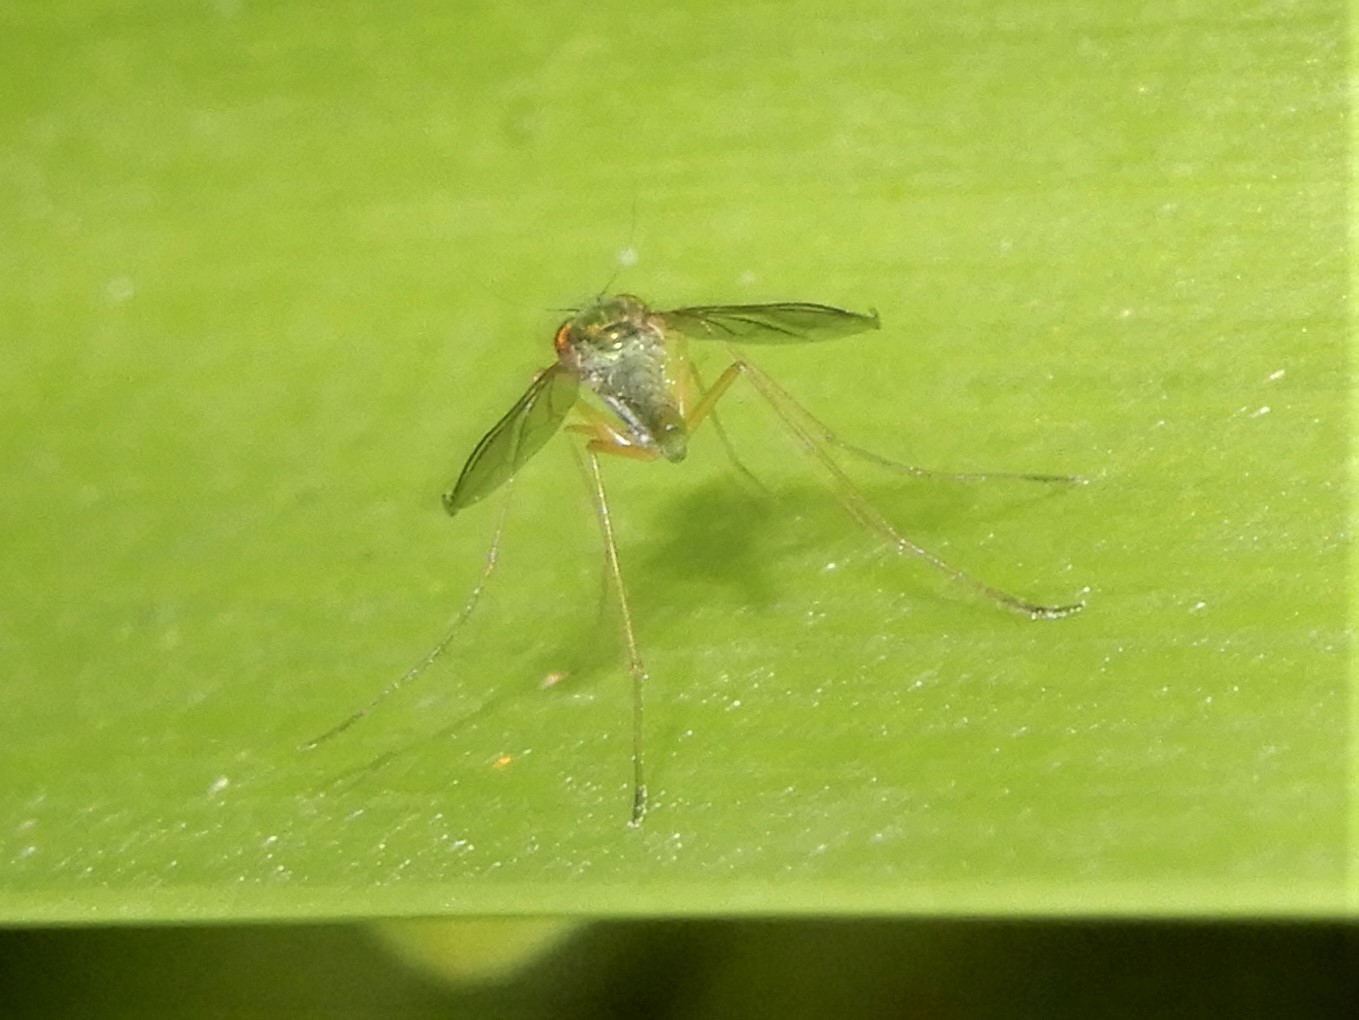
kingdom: Animalia
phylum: Arthropoda
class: Insecta
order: Diptera
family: Dolichopodidae
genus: Parentia
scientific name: Parentia anomalicosta
